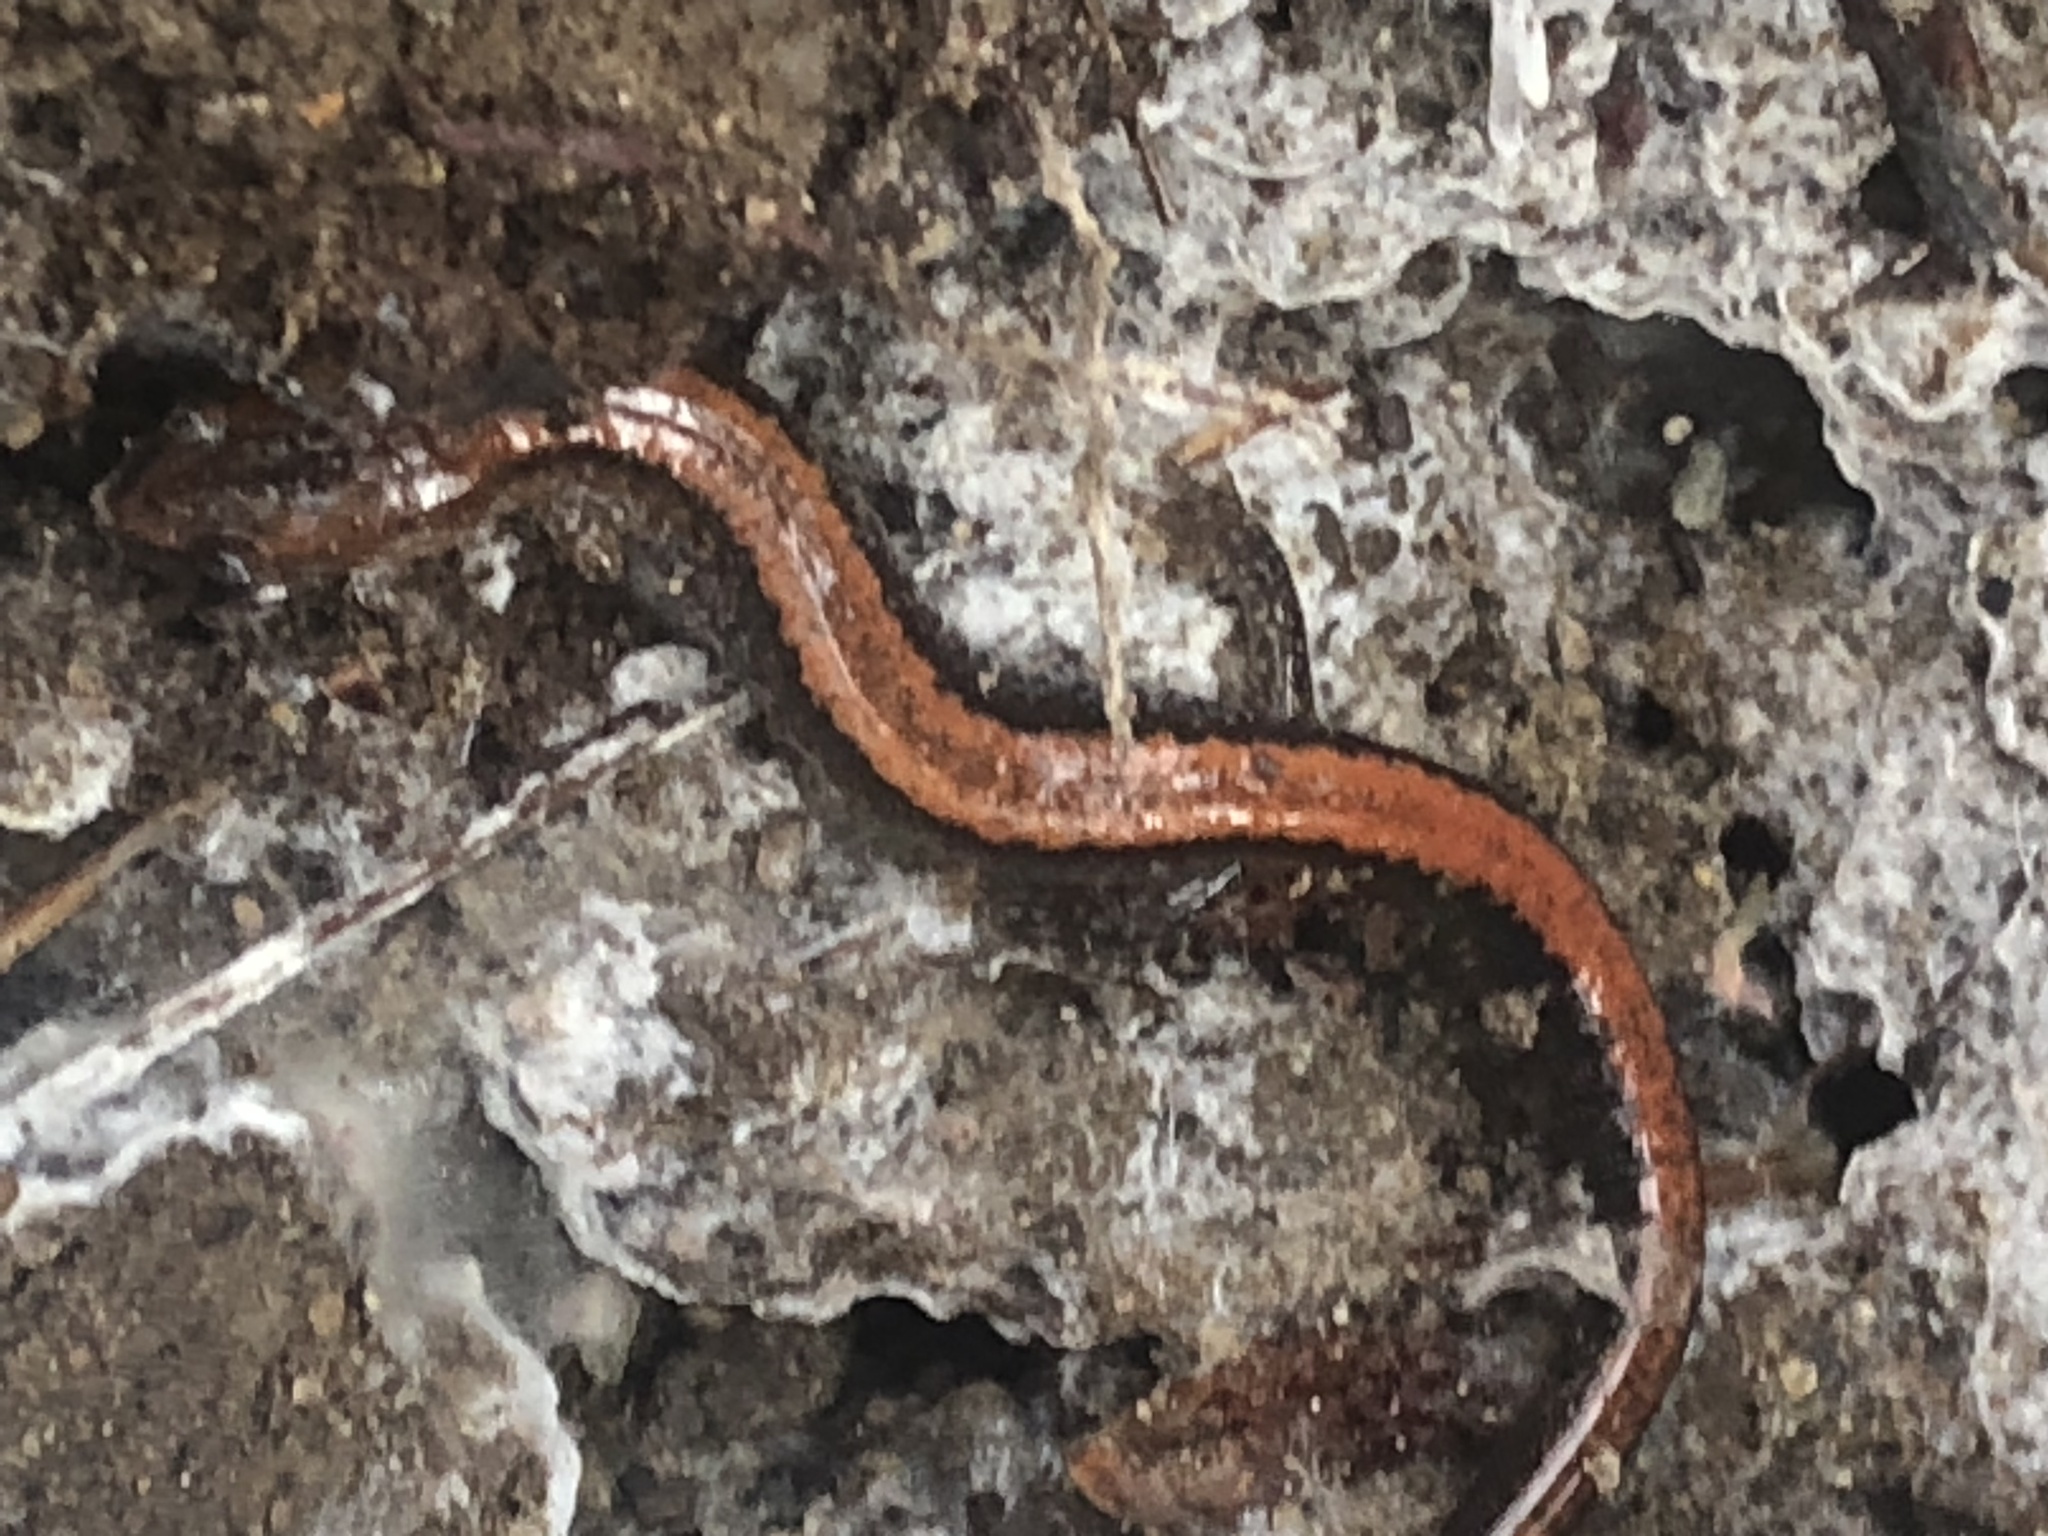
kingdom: Animalia
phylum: Chordata
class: Amphibia
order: Caudata
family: Plethodontidae
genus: Plethodon
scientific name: Plethodon cinereus
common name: Redback salamander
